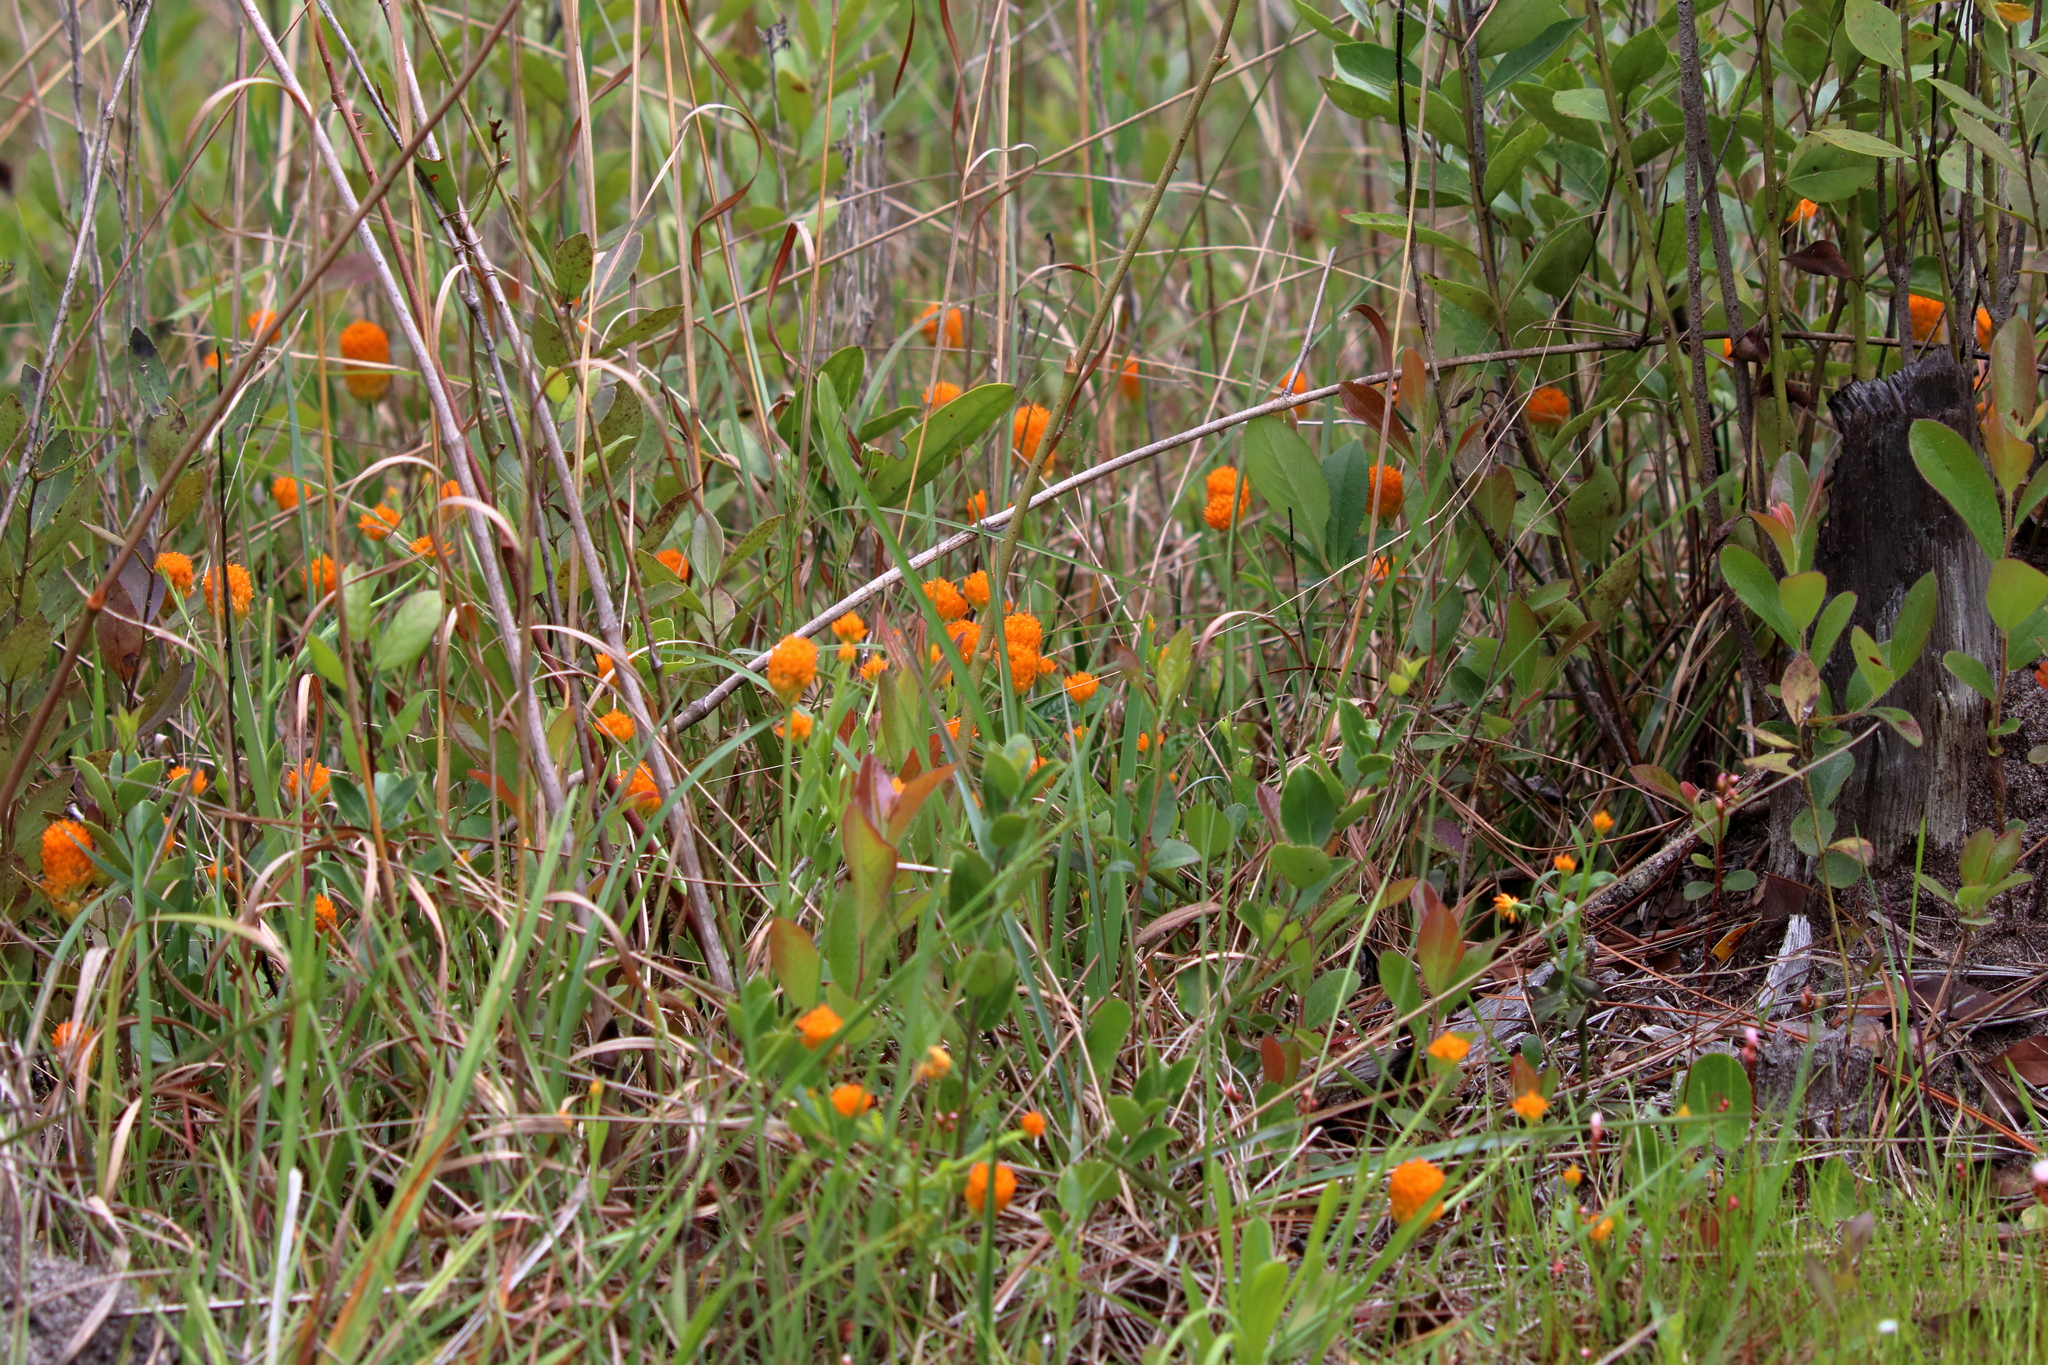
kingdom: Plantae
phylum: Tracheophyta
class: Magnoliopsida
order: Fabales
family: Polygalaceae
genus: Polygala
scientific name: Polygala lutea
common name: Orange milkwort
